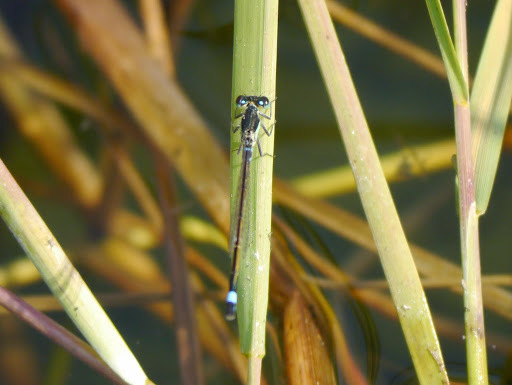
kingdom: Animalia
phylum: Arthropoda
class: Insecta
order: Odonata
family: Coenagrionidae
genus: Ischnura
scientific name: Ischnura senegalensis
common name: Tropical bluetail
